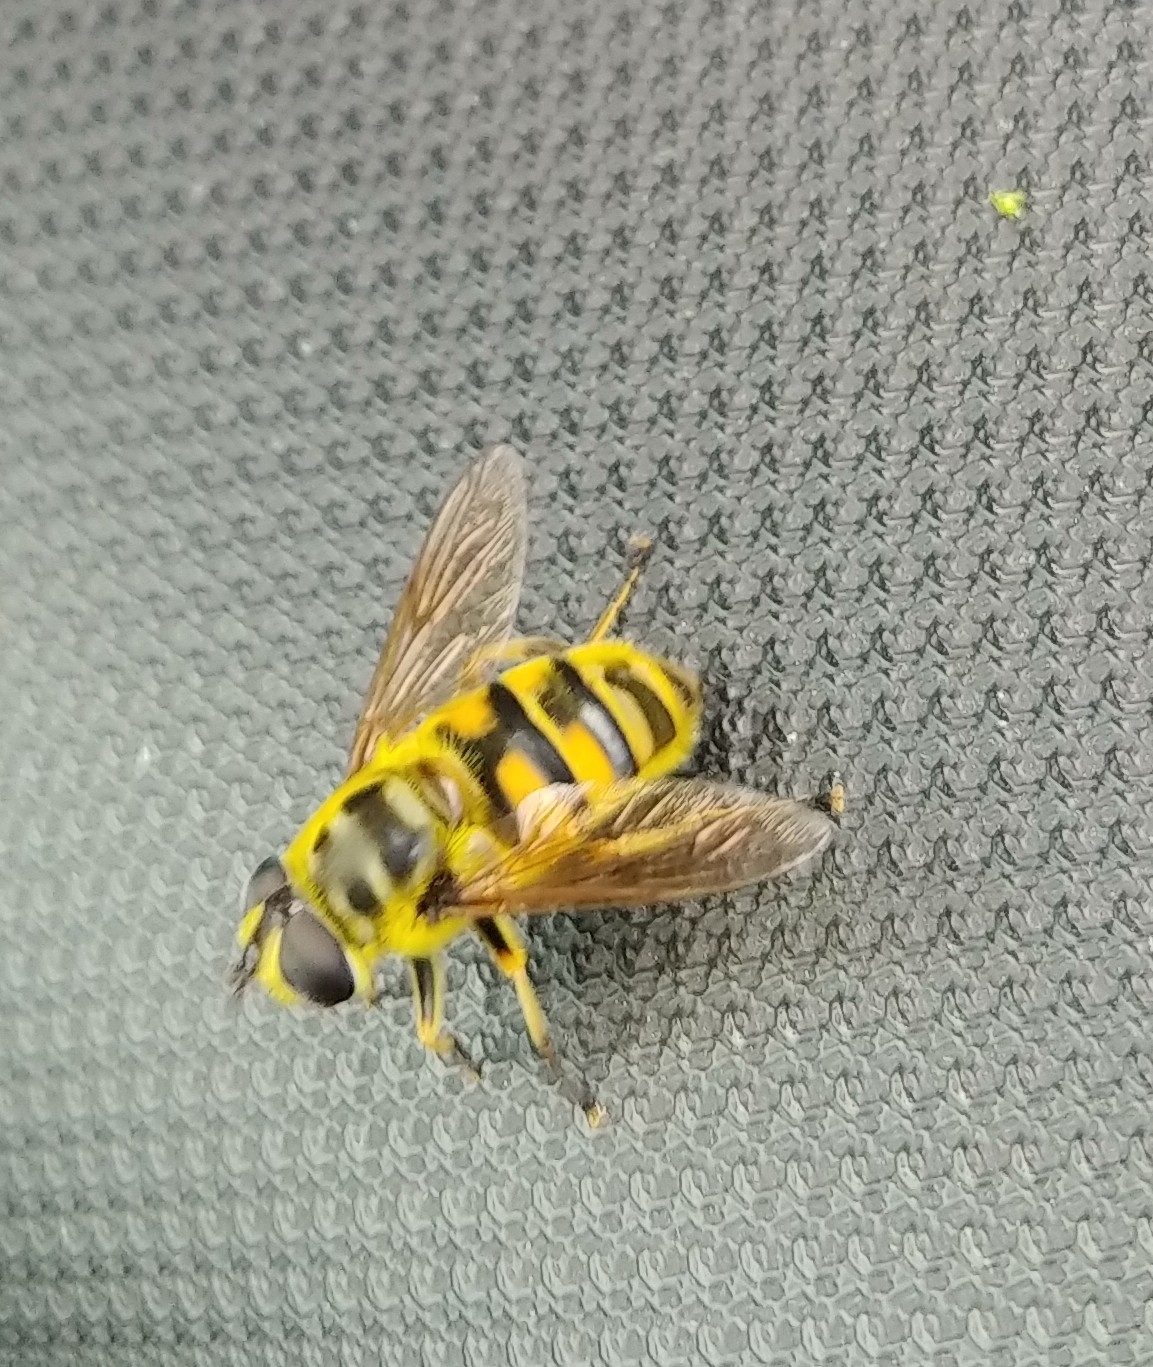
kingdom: Animalia
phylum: Arthropoda
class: Insecta
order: Diptera
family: Syrphidae
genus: Myathropa
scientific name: Myathropa florea
